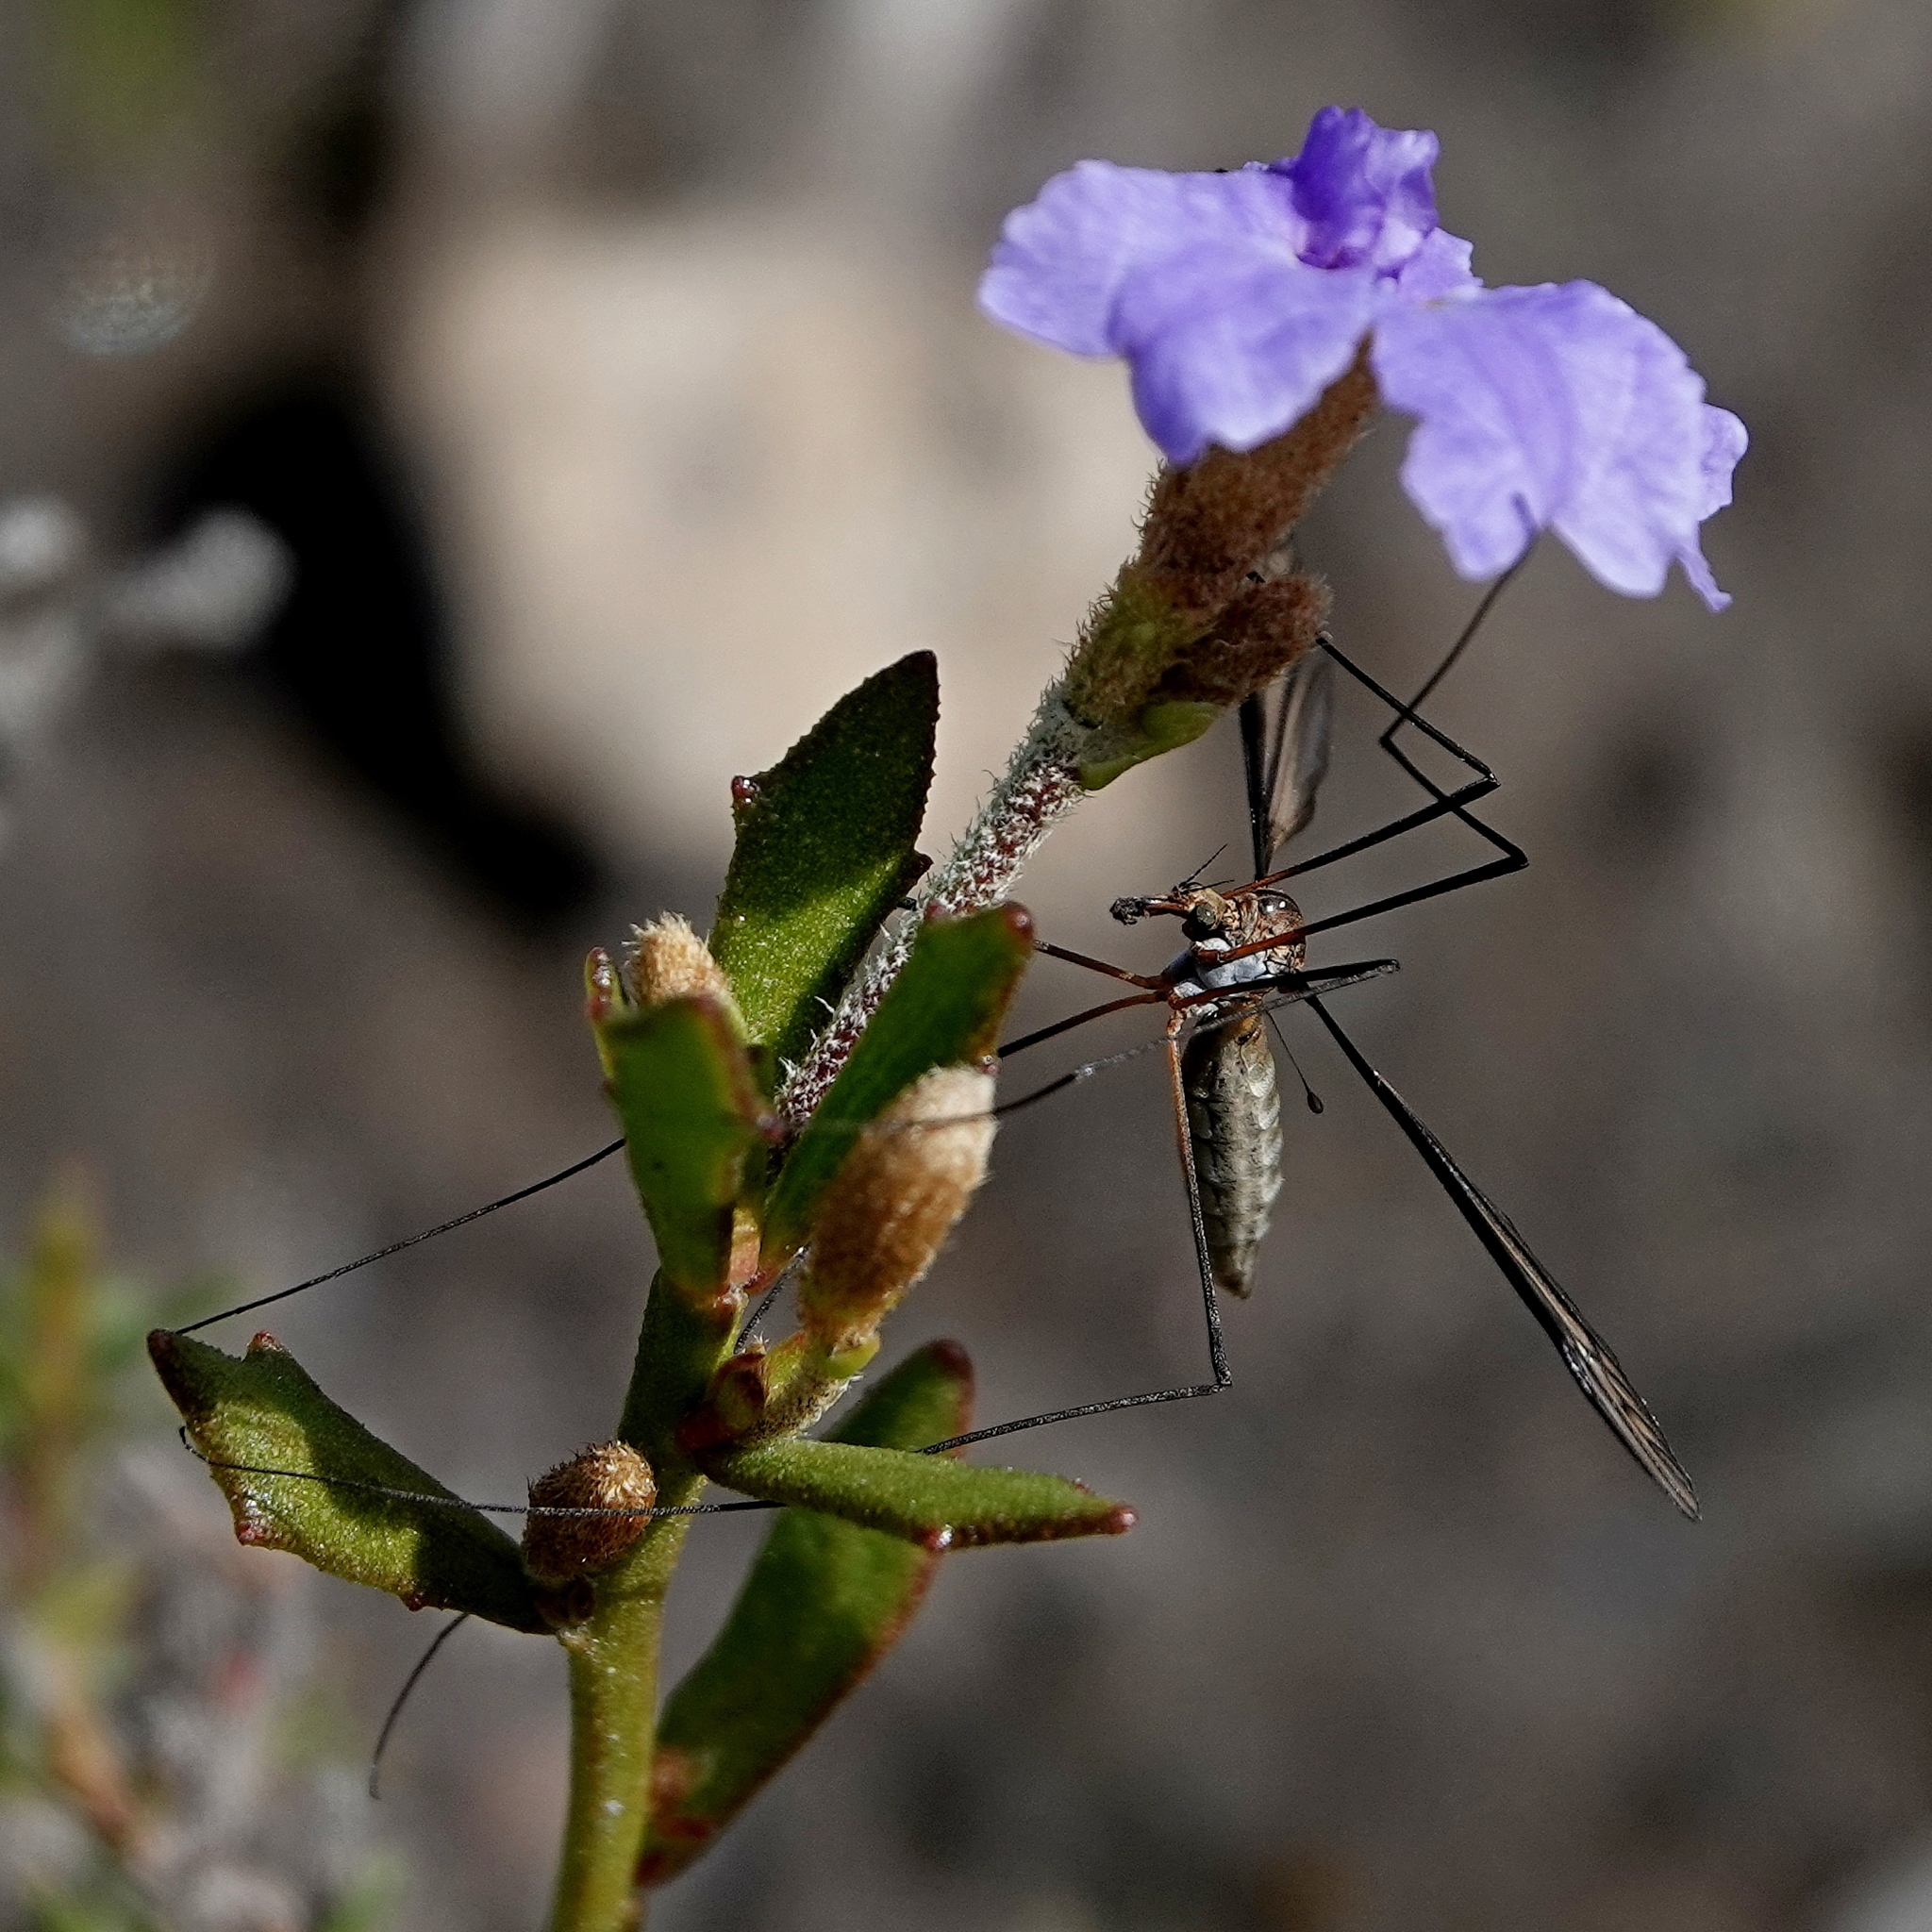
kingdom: Animalia
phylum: Arthropoda
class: Insecta
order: Diptera
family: Tipulidae
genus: Leptotarsus
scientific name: Leptotarsus humilis
